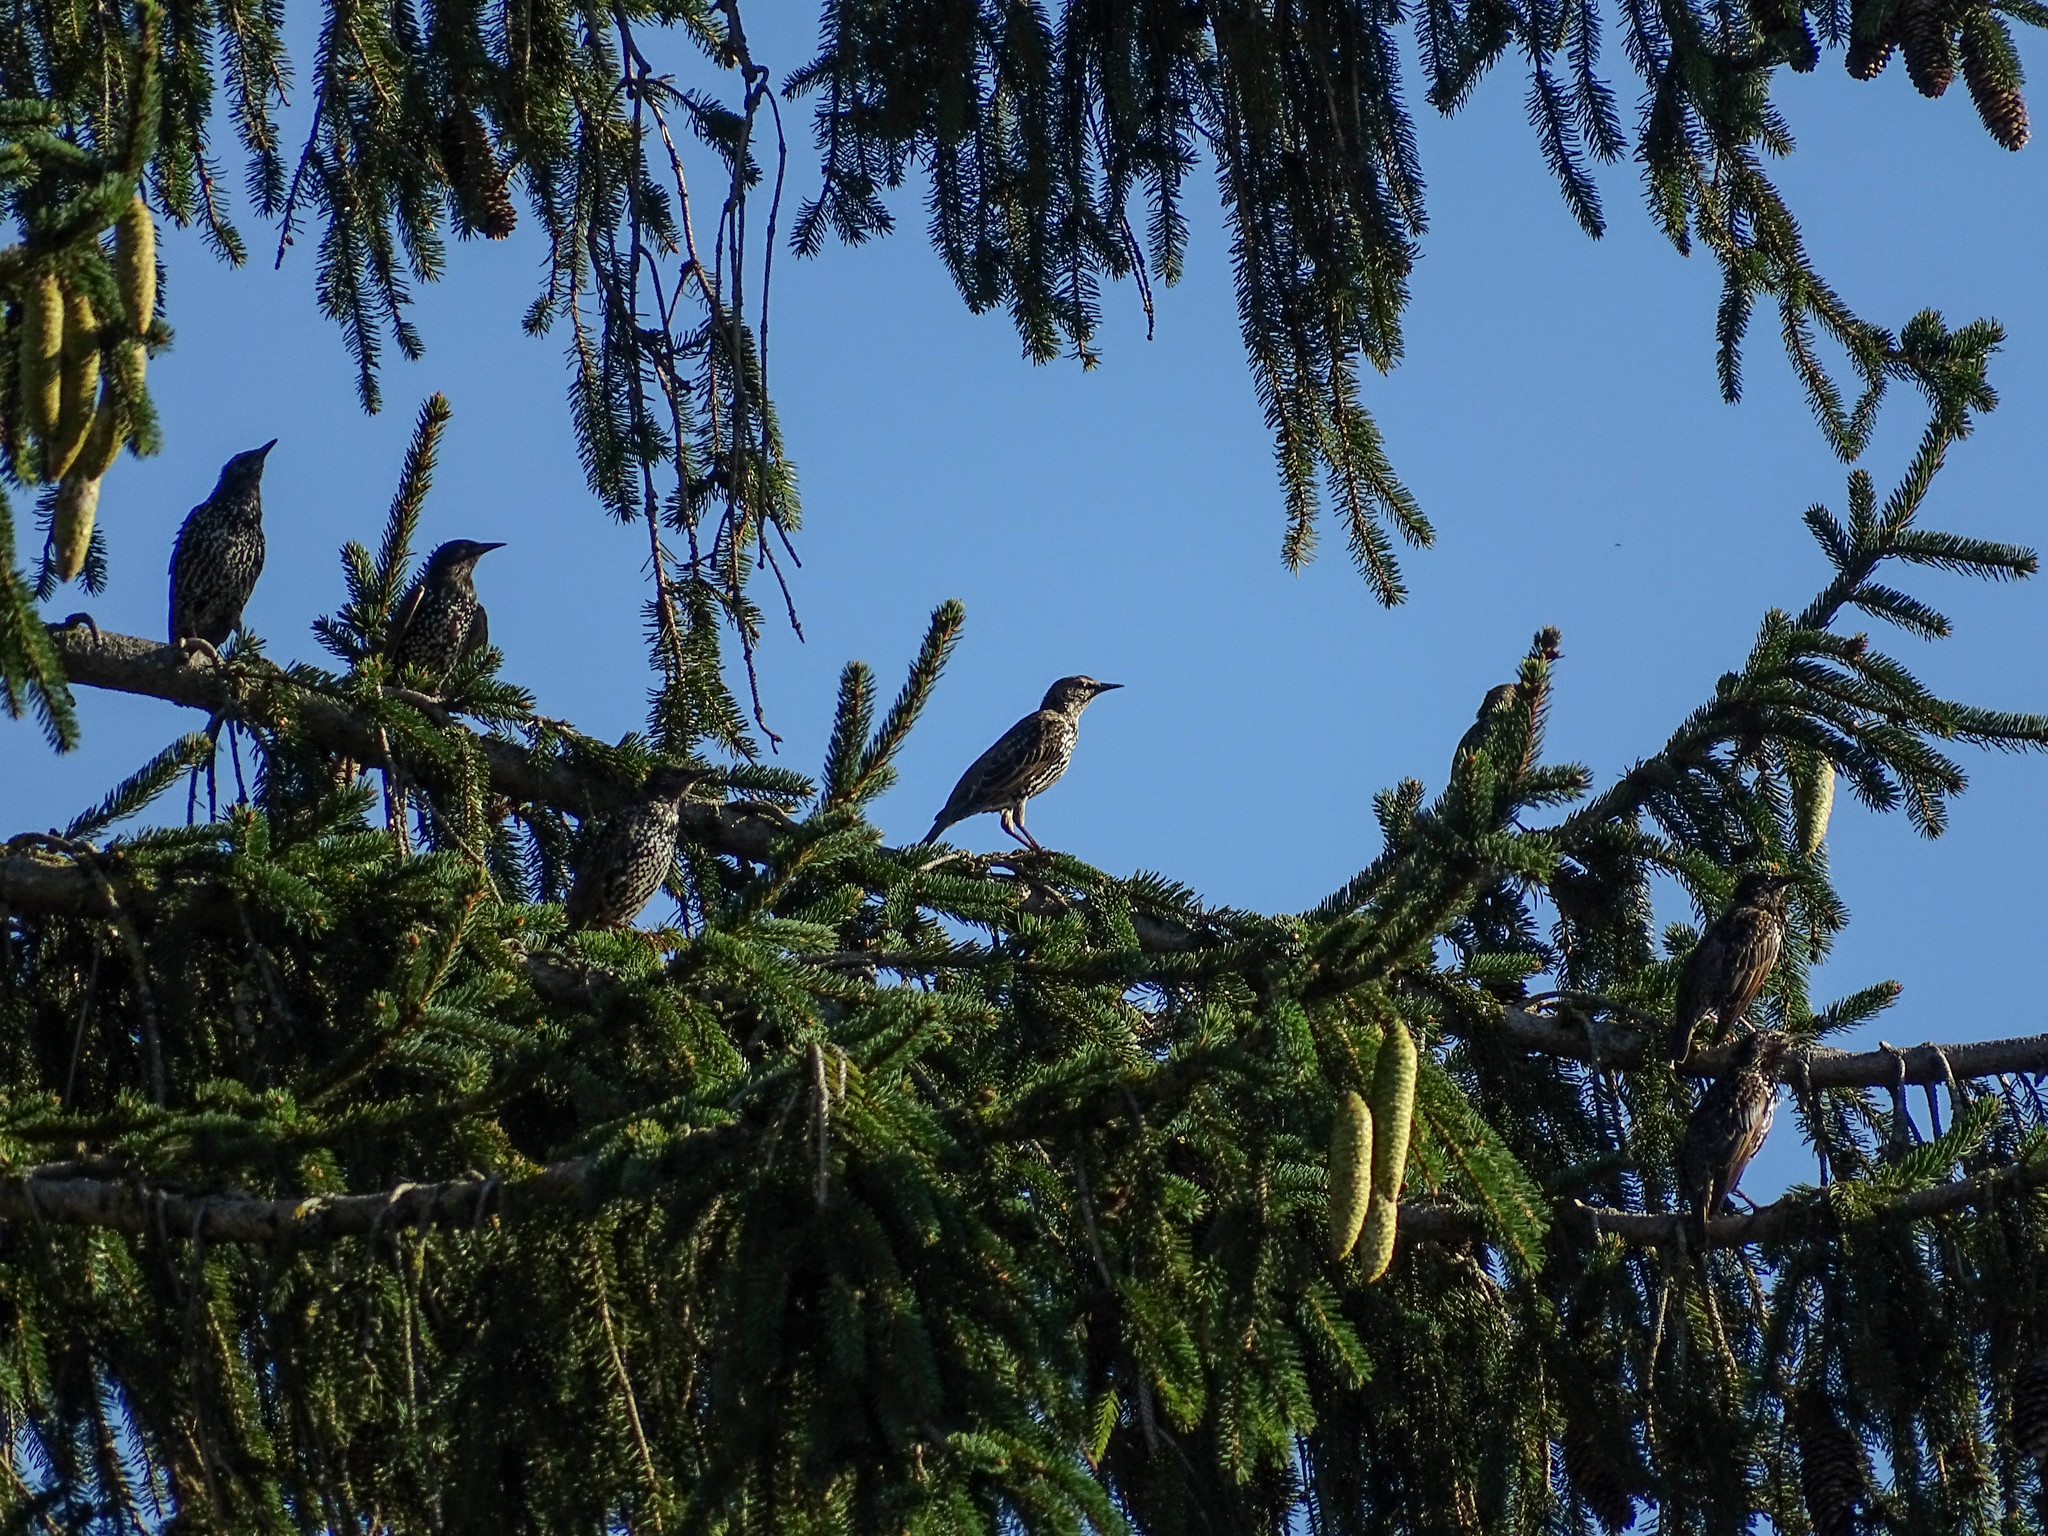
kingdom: Animalia
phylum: Chordata
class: Aves
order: Passeriformes
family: Sturnidae
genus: Sturnus
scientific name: Sturnus vulgaris
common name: Common starling
